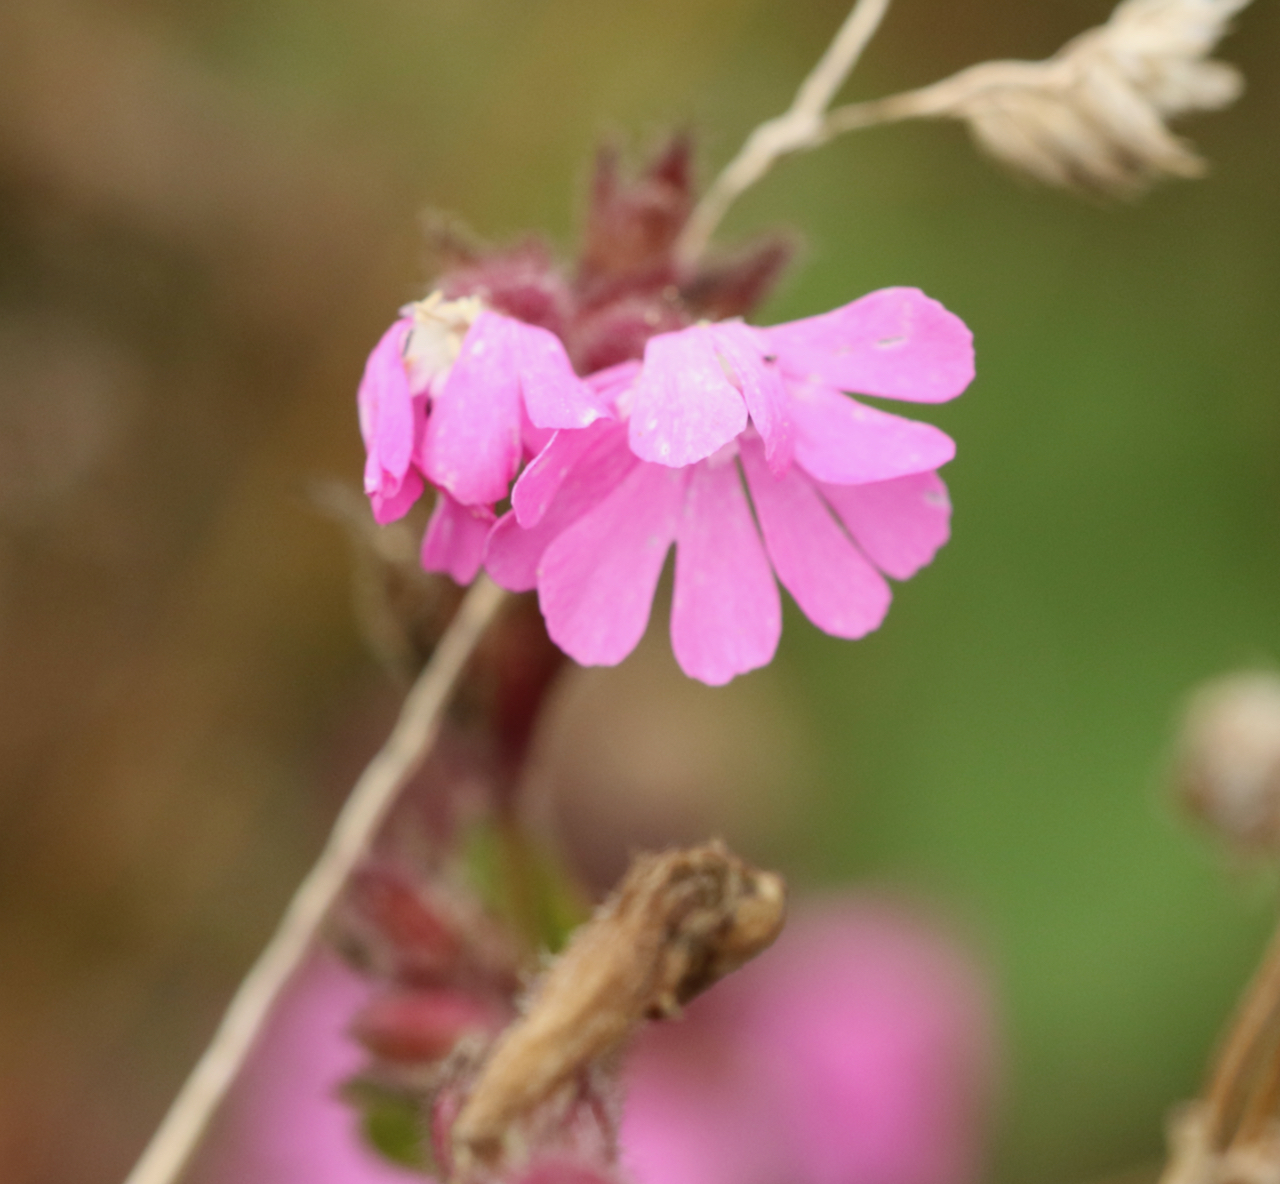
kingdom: Plantae
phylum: Tracheophyta
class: Magnoliopsida
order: Caryophyllales
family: Caryophyllaceae
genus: Silene
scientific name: Silene dioica
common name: Red campion
